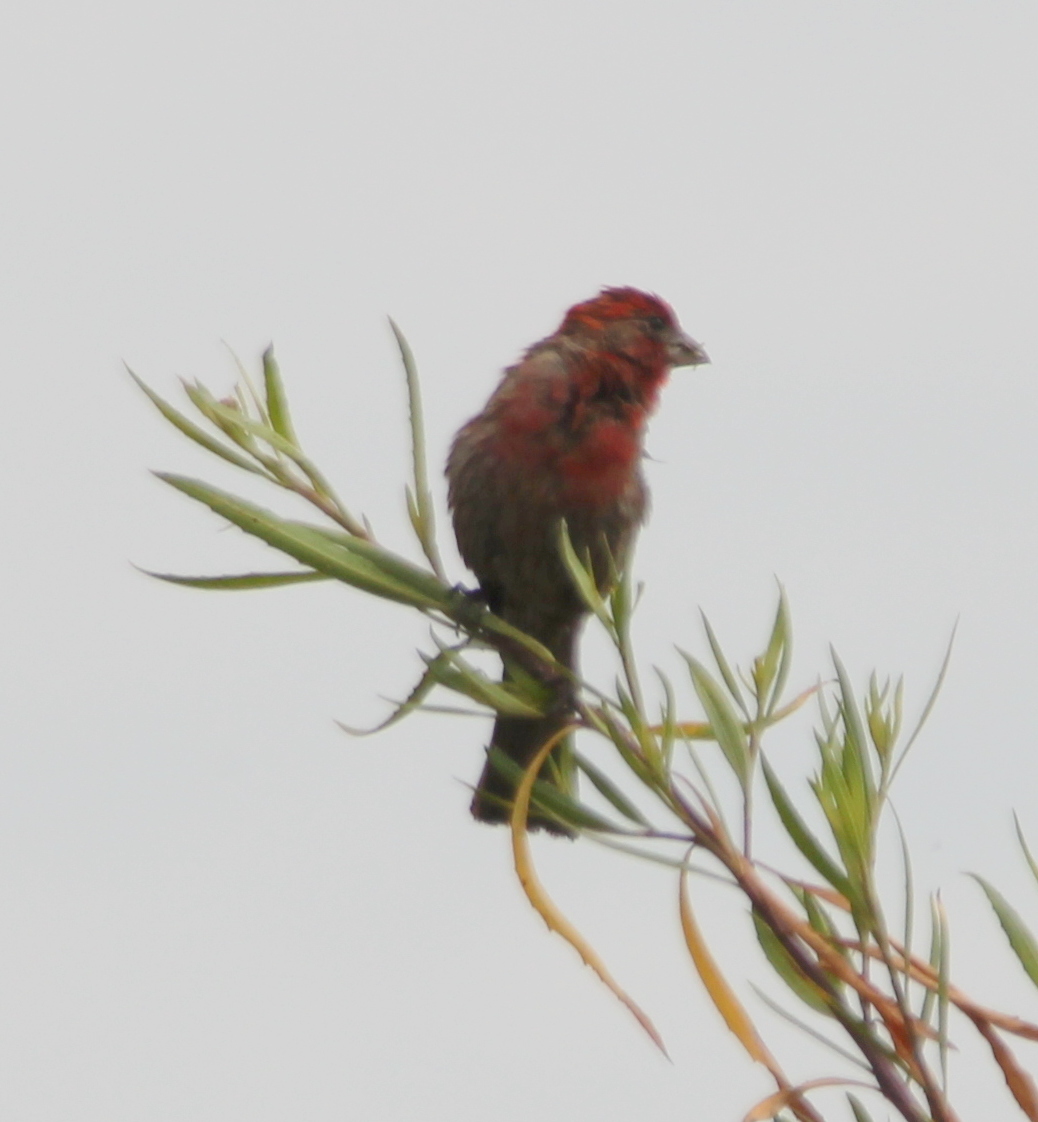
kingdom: Animalia
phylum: Chordata
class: Aves
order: Passeriformes
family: Fringillidae
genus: Haemorhous
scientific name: Haemorhous mexicanus
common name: House finch
